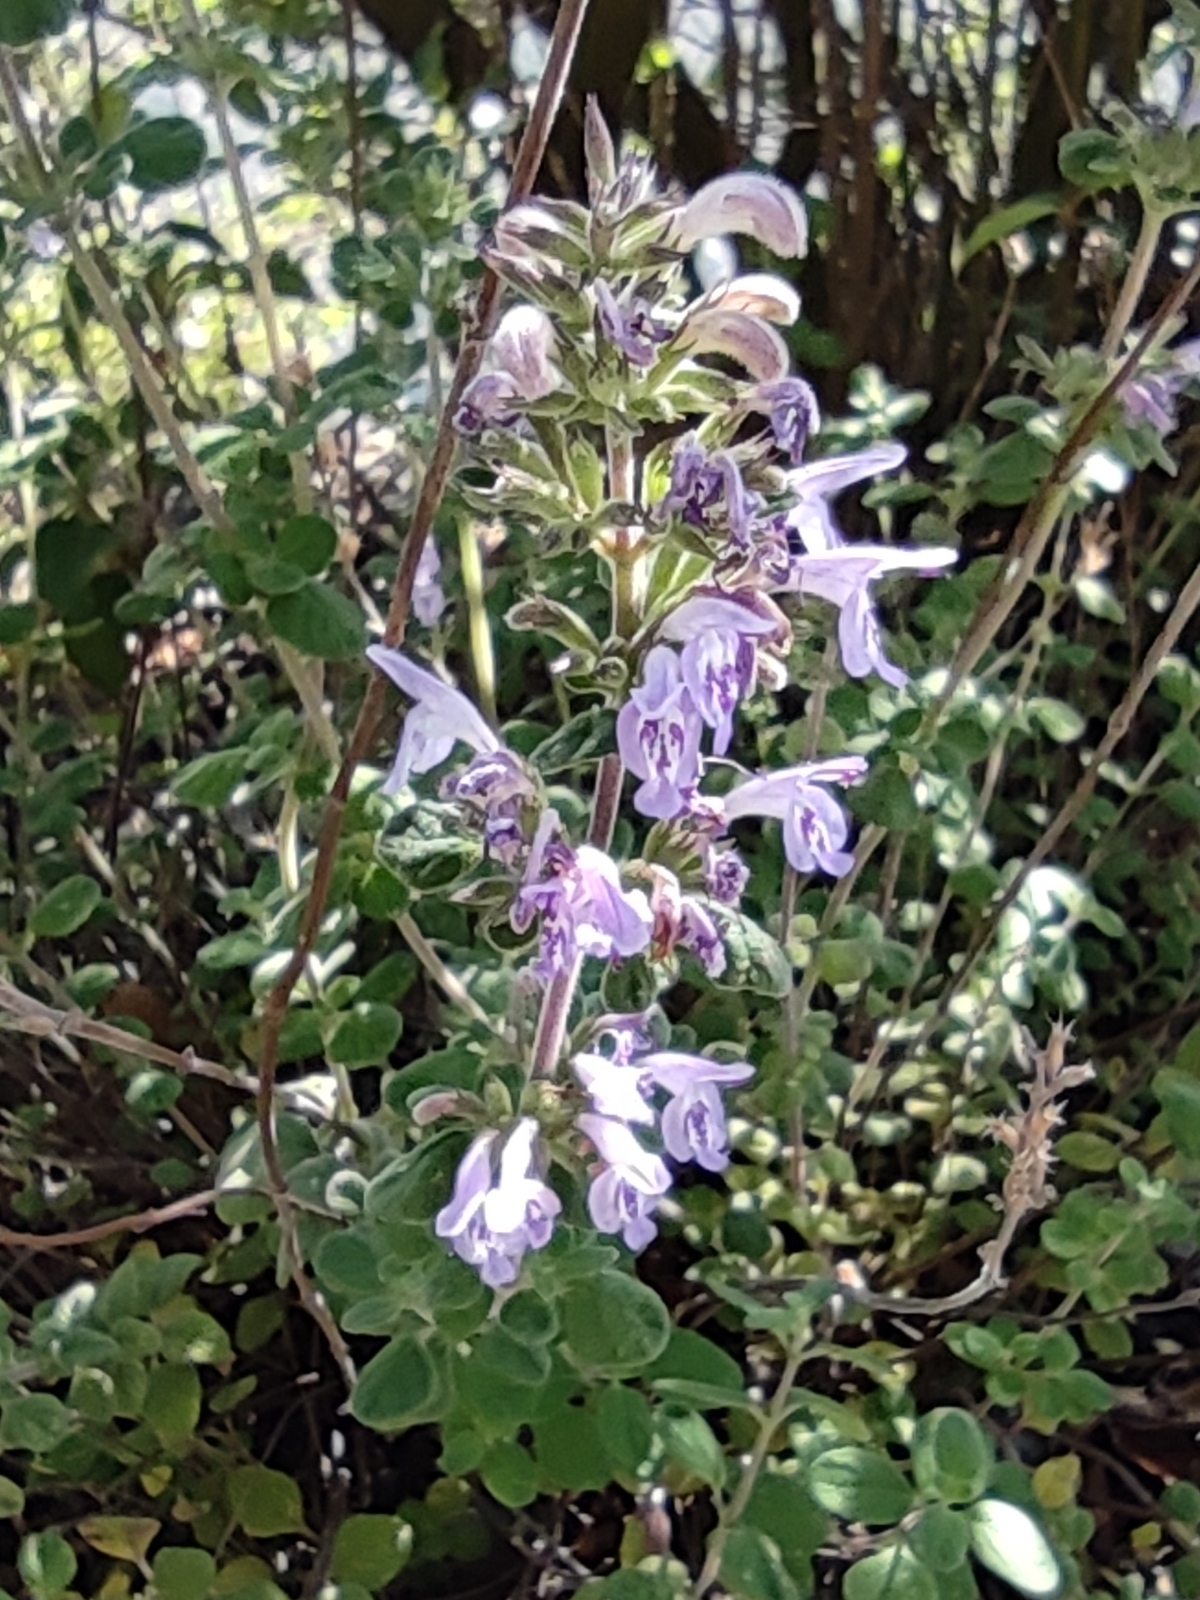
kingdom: Plantae
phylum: Tracheophyta
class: Magnoliopsida
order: Lamiales
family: Lamiaceae
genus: Hedeoma
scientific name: Hedeoma palmeri
